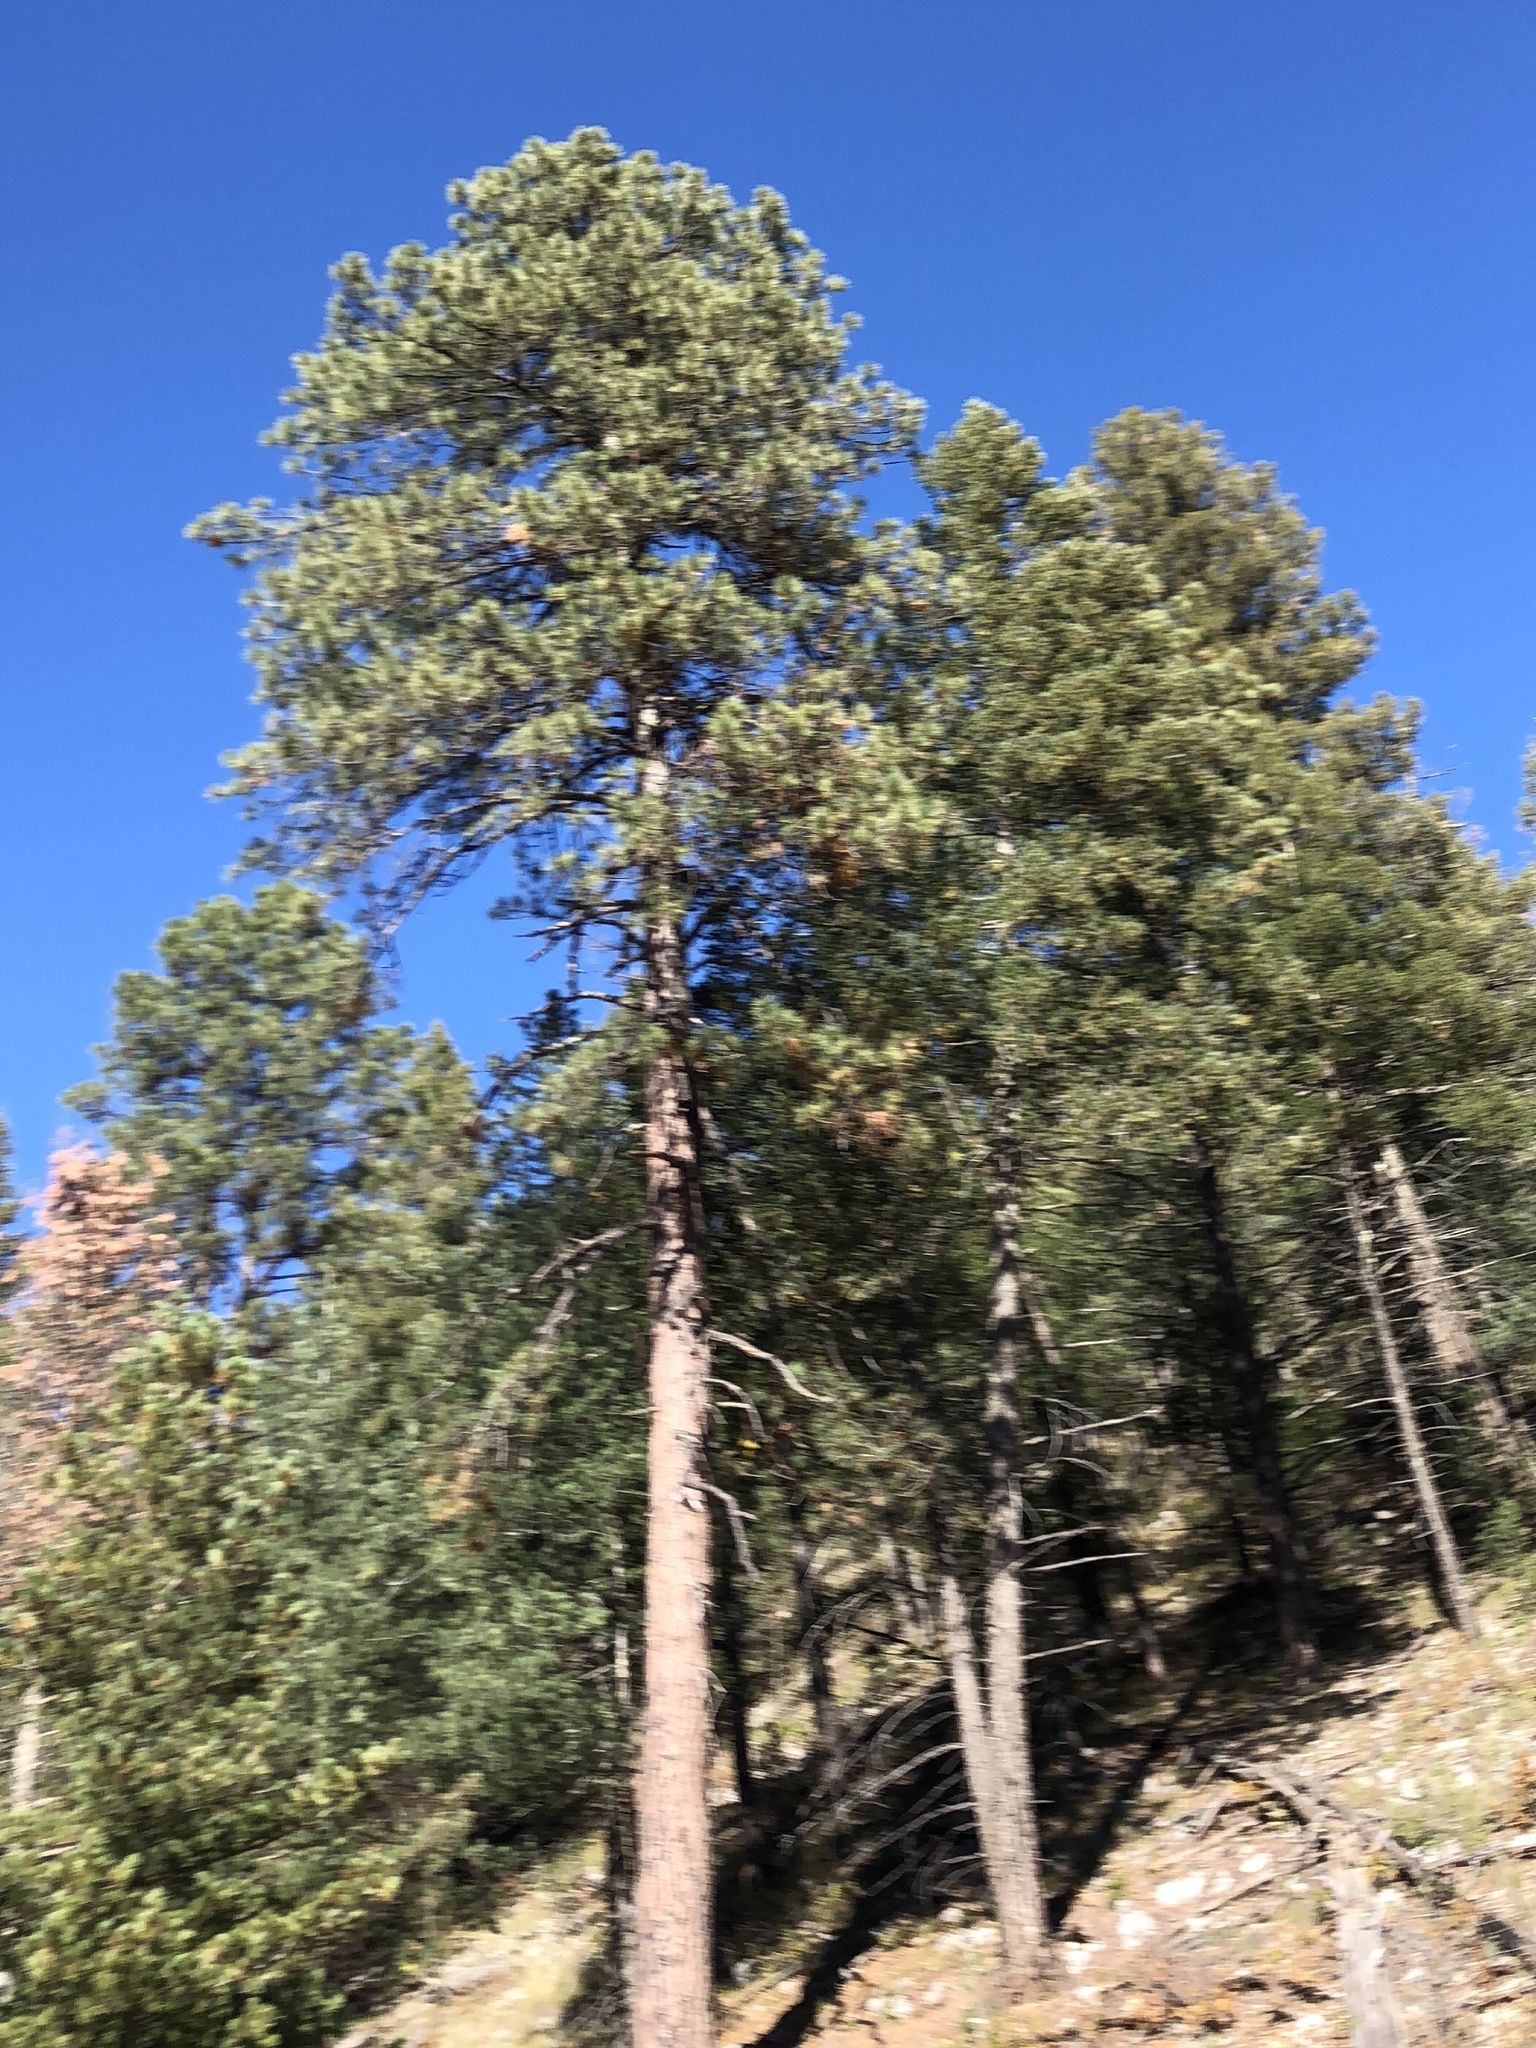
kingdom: Plantae
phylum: Tracheophyta
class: Pinopsida
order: Pinales
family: Pinaceae
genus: Pinus
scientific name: Pinus ponderosa
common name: Western yellow-pine
